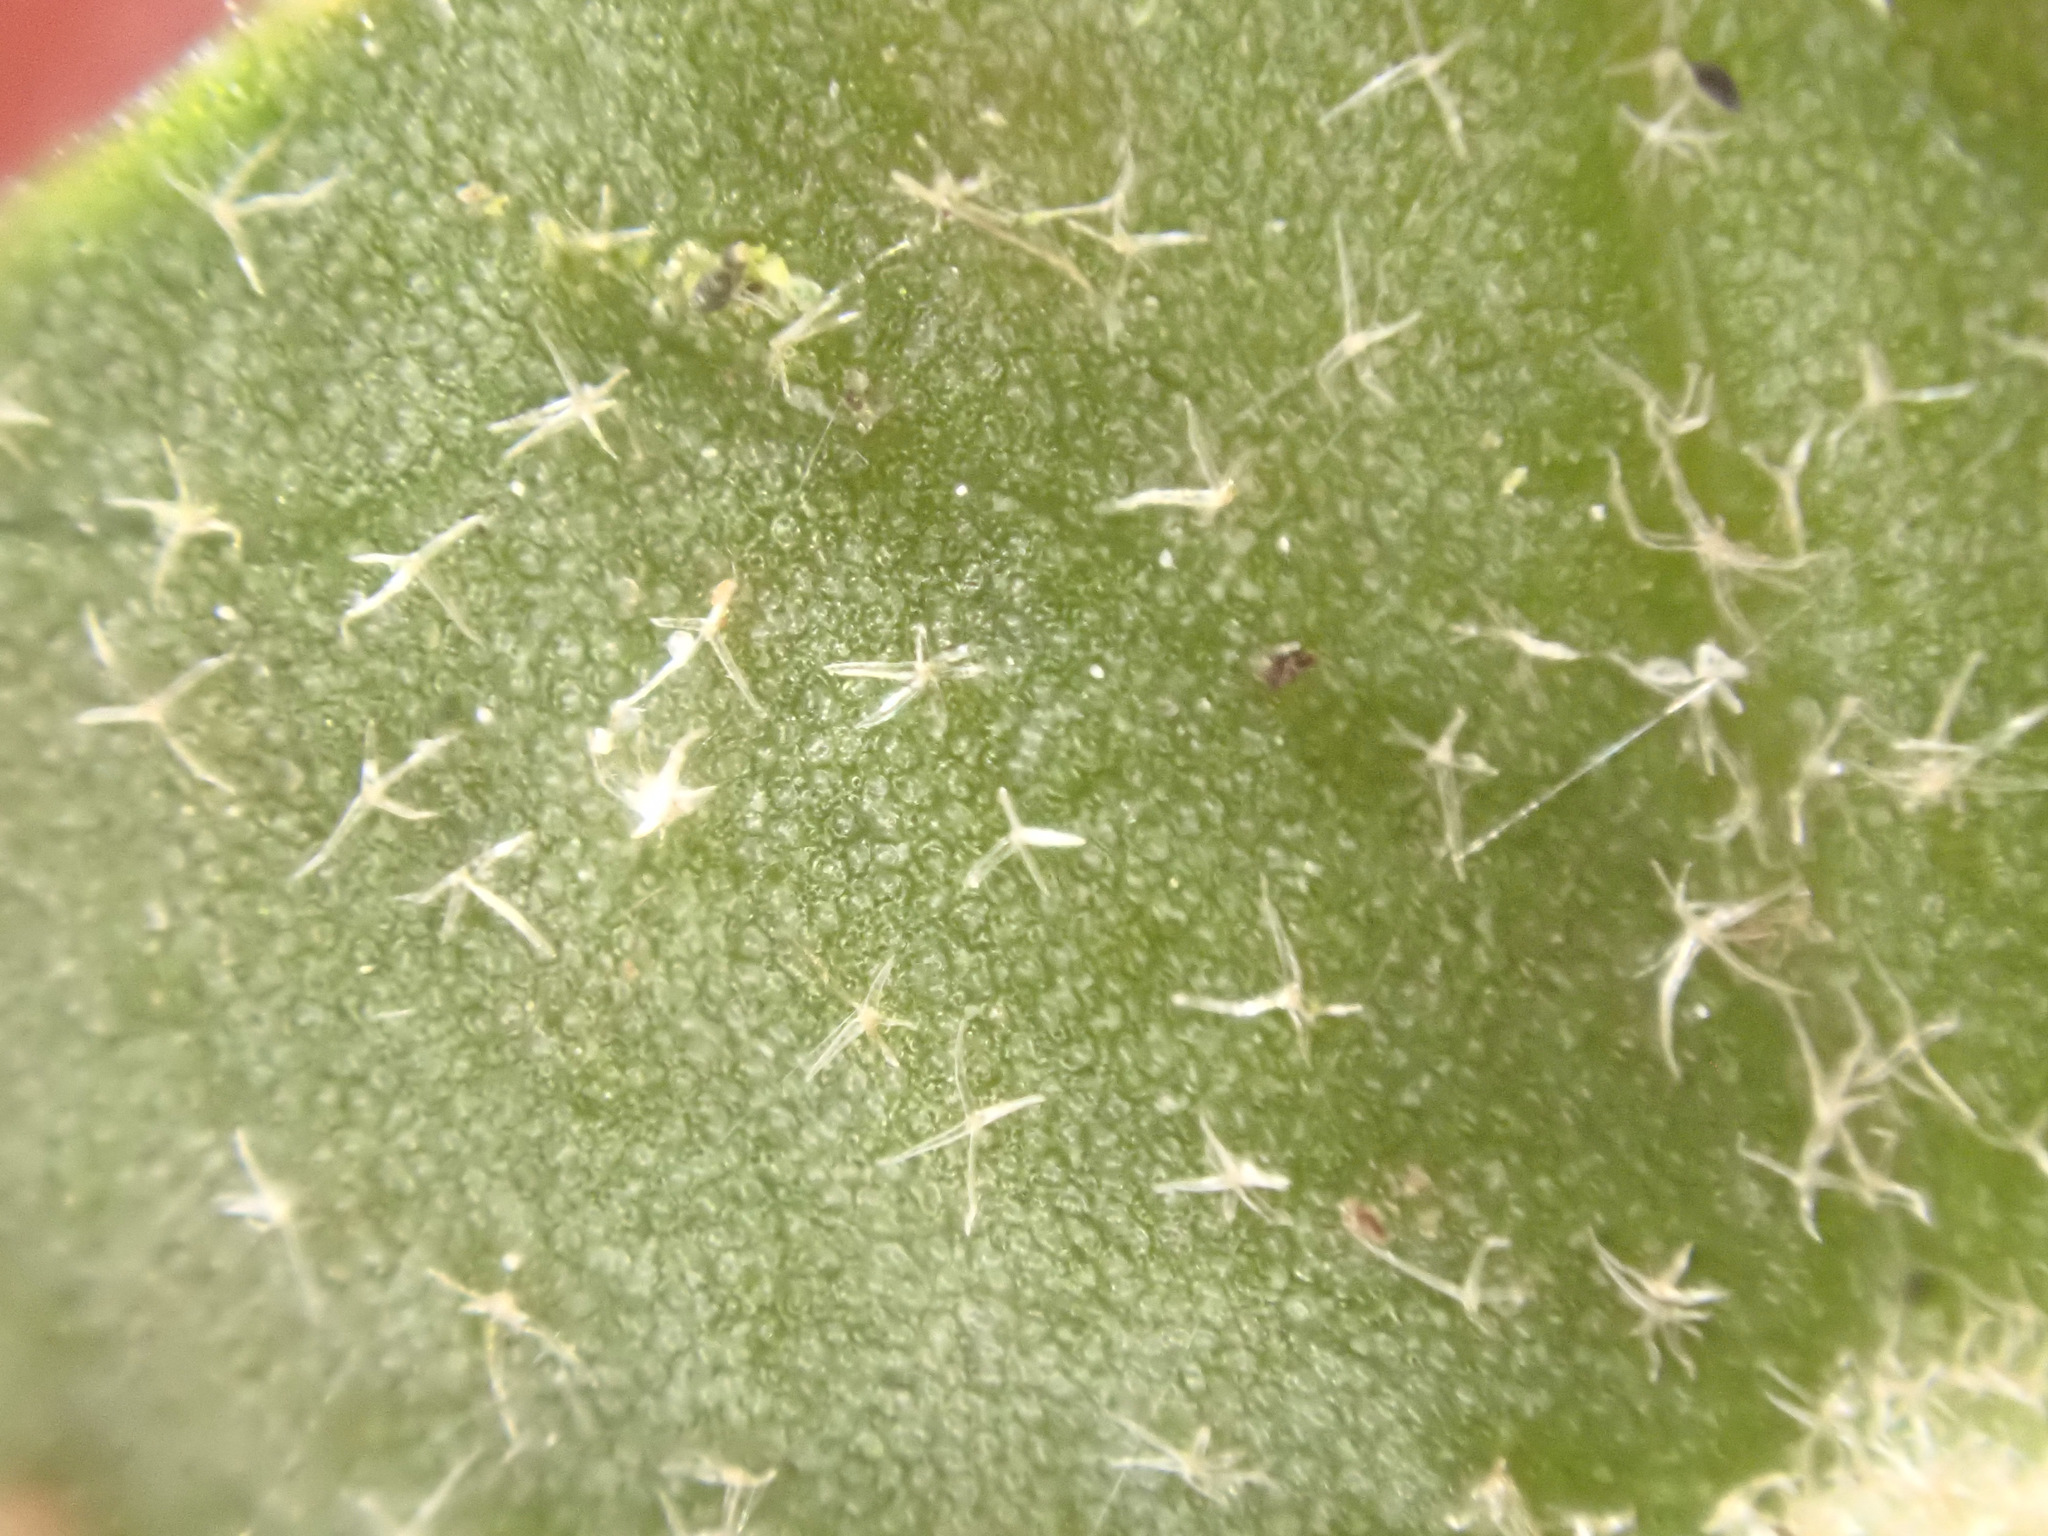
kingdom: Plantae
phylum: Tracheophyta
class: Magnoliopsida
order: Apiales
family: Araliaceae
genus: Hedera
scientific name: Hedera helix
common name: Ivy
